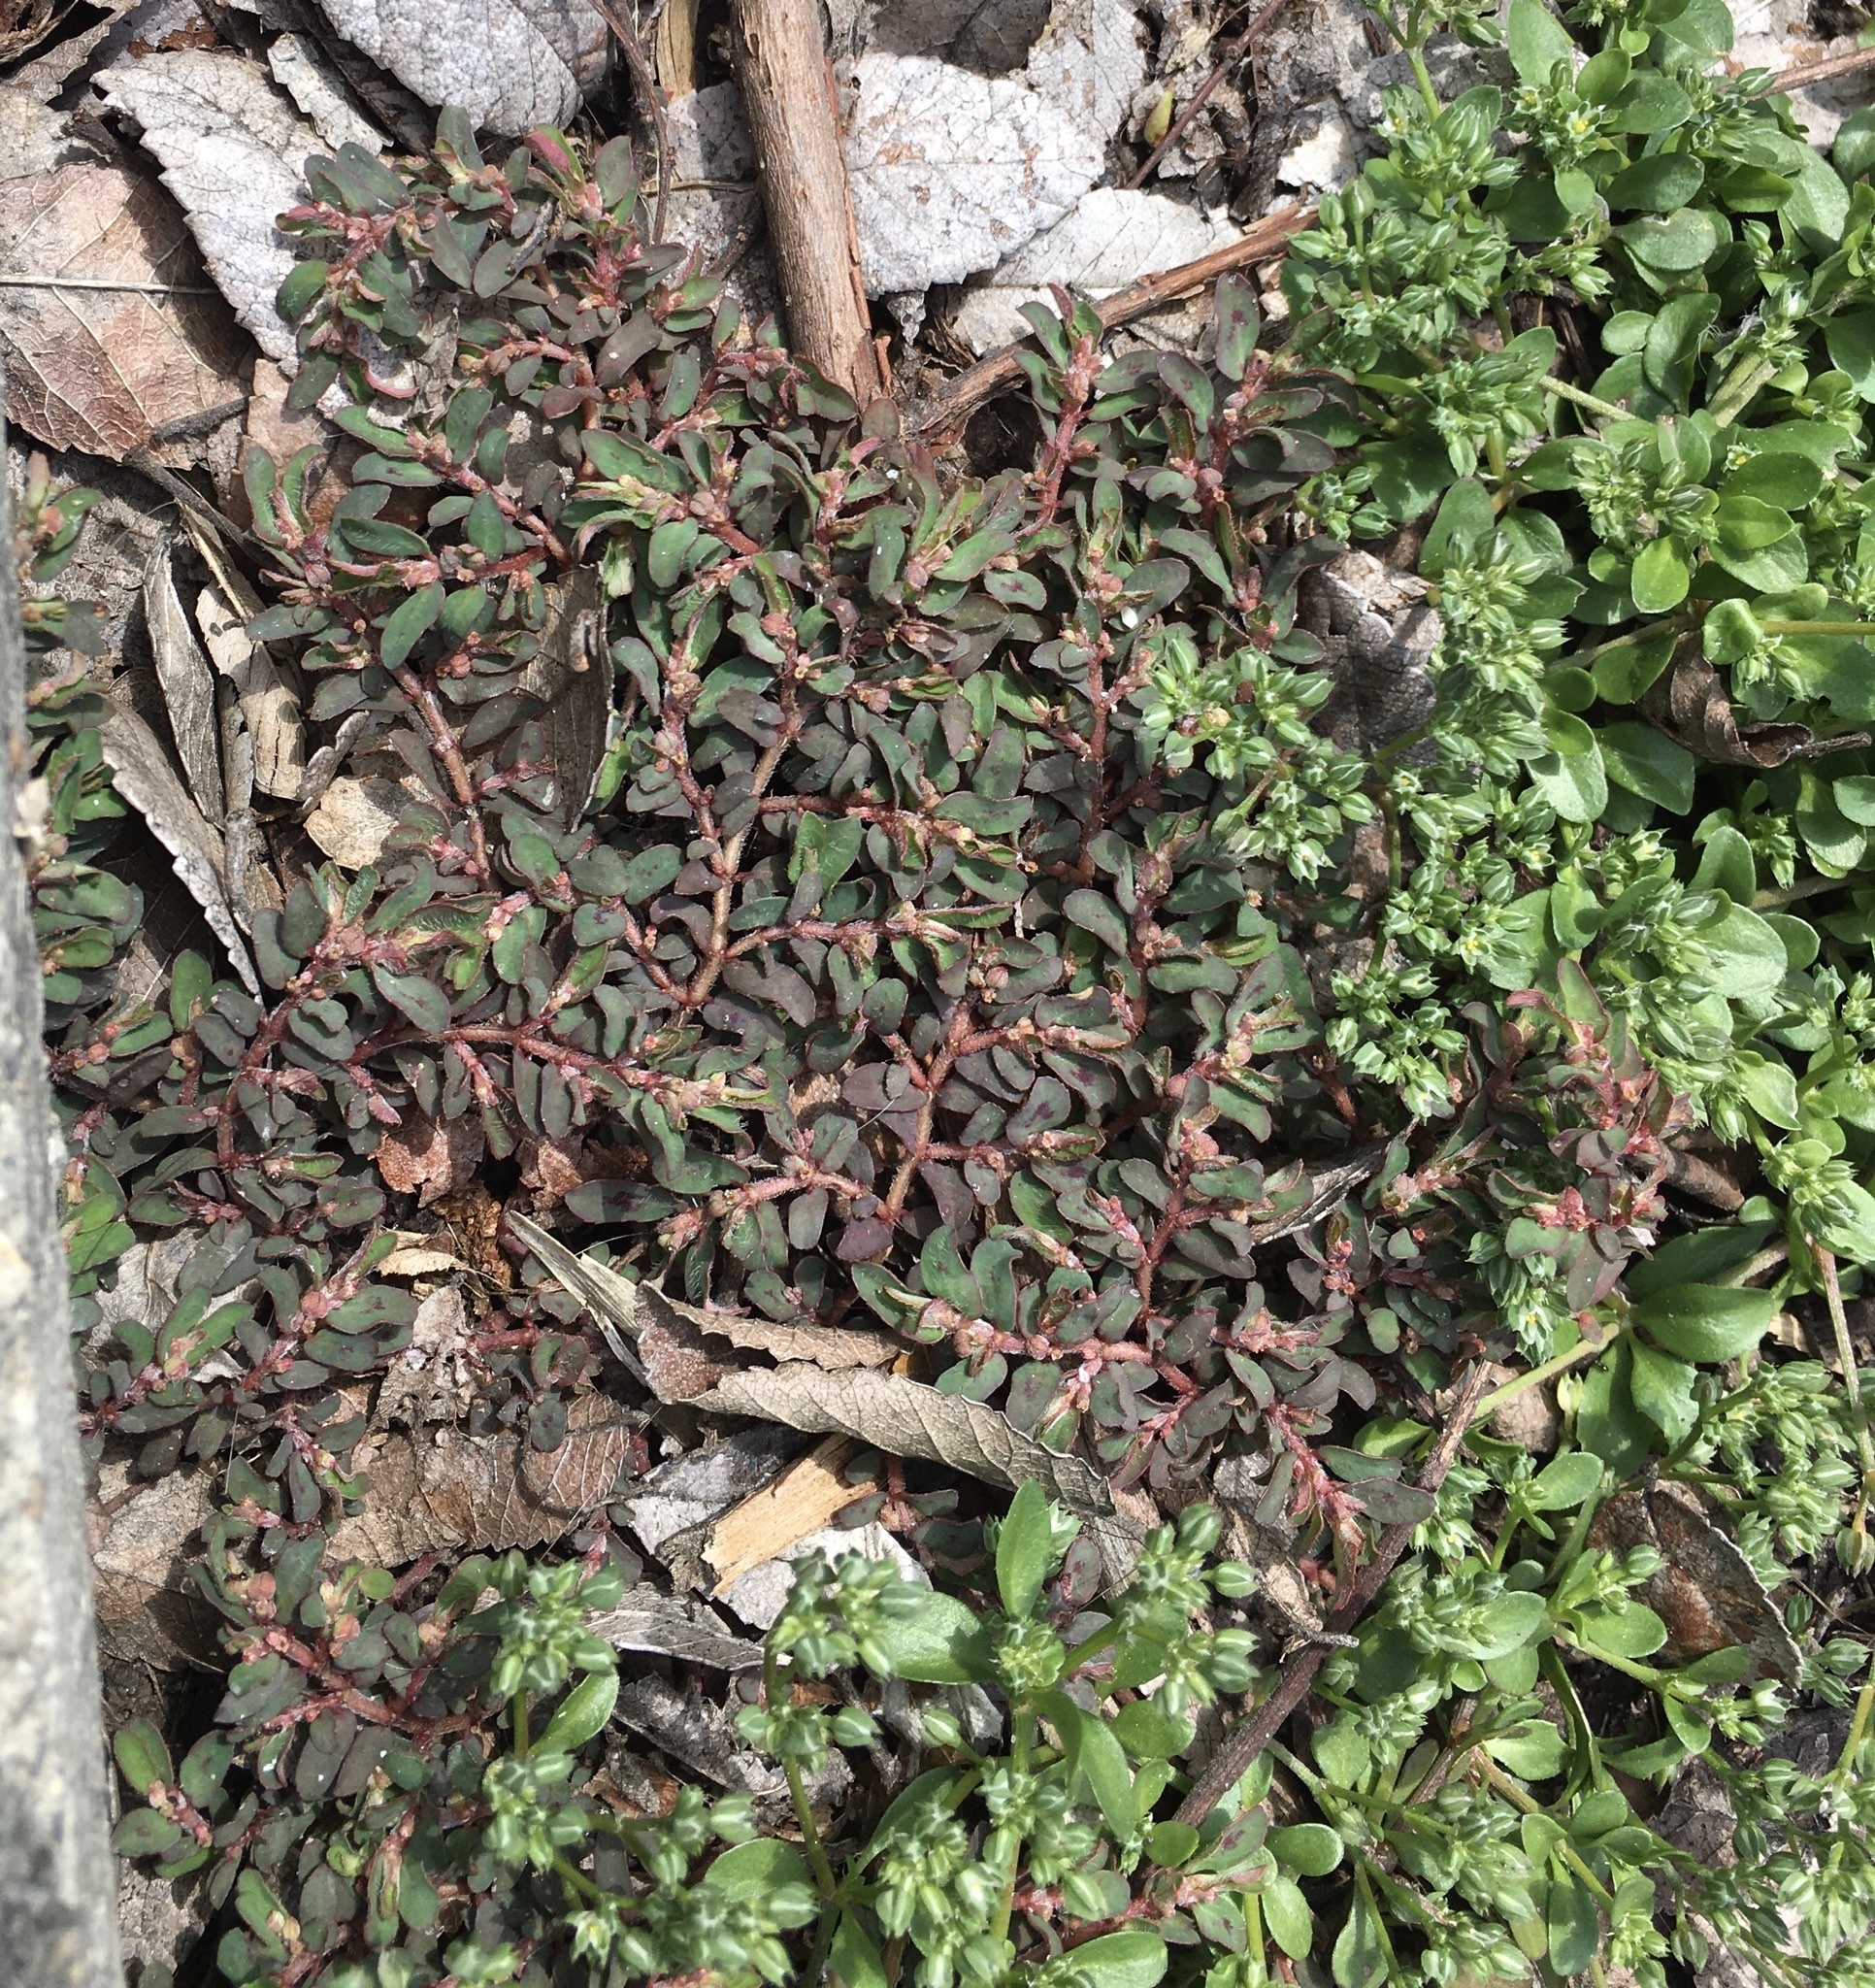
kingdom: Plantae
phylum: Tracheophyta
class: Magnoliopsida
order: Malpighiales
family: Euphorbiaceae
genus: Euphorbia
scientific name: Euphorbia maculata
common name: Spotted spurge
